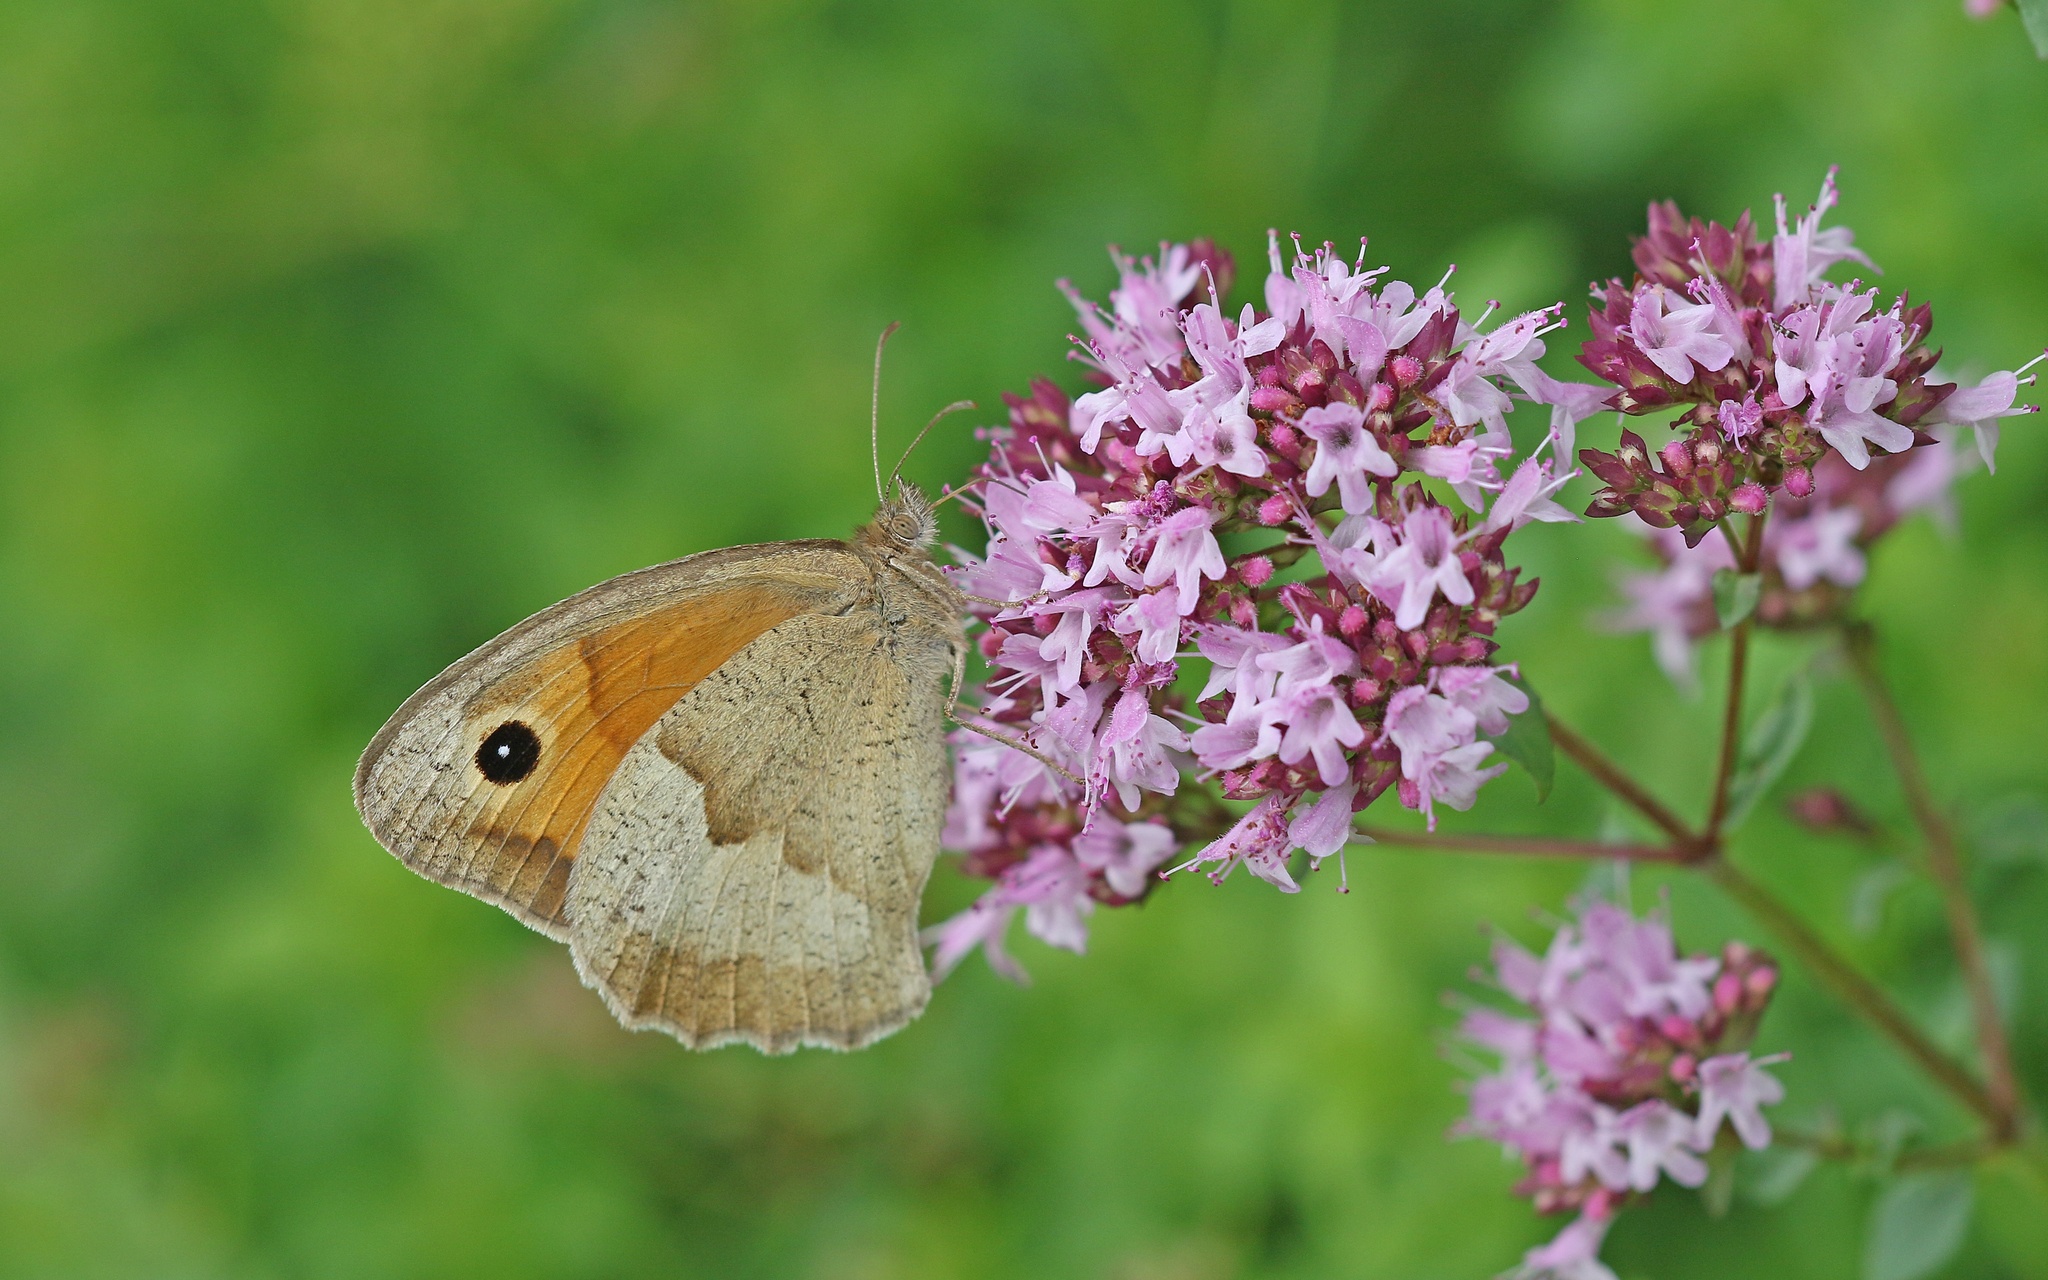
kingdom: Animalia
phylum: Arthropoda
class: Insecta
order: Lepidoptera
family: Nymphalidae
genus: Maniola
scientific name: Maniola jurtina
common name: Meadow brown
